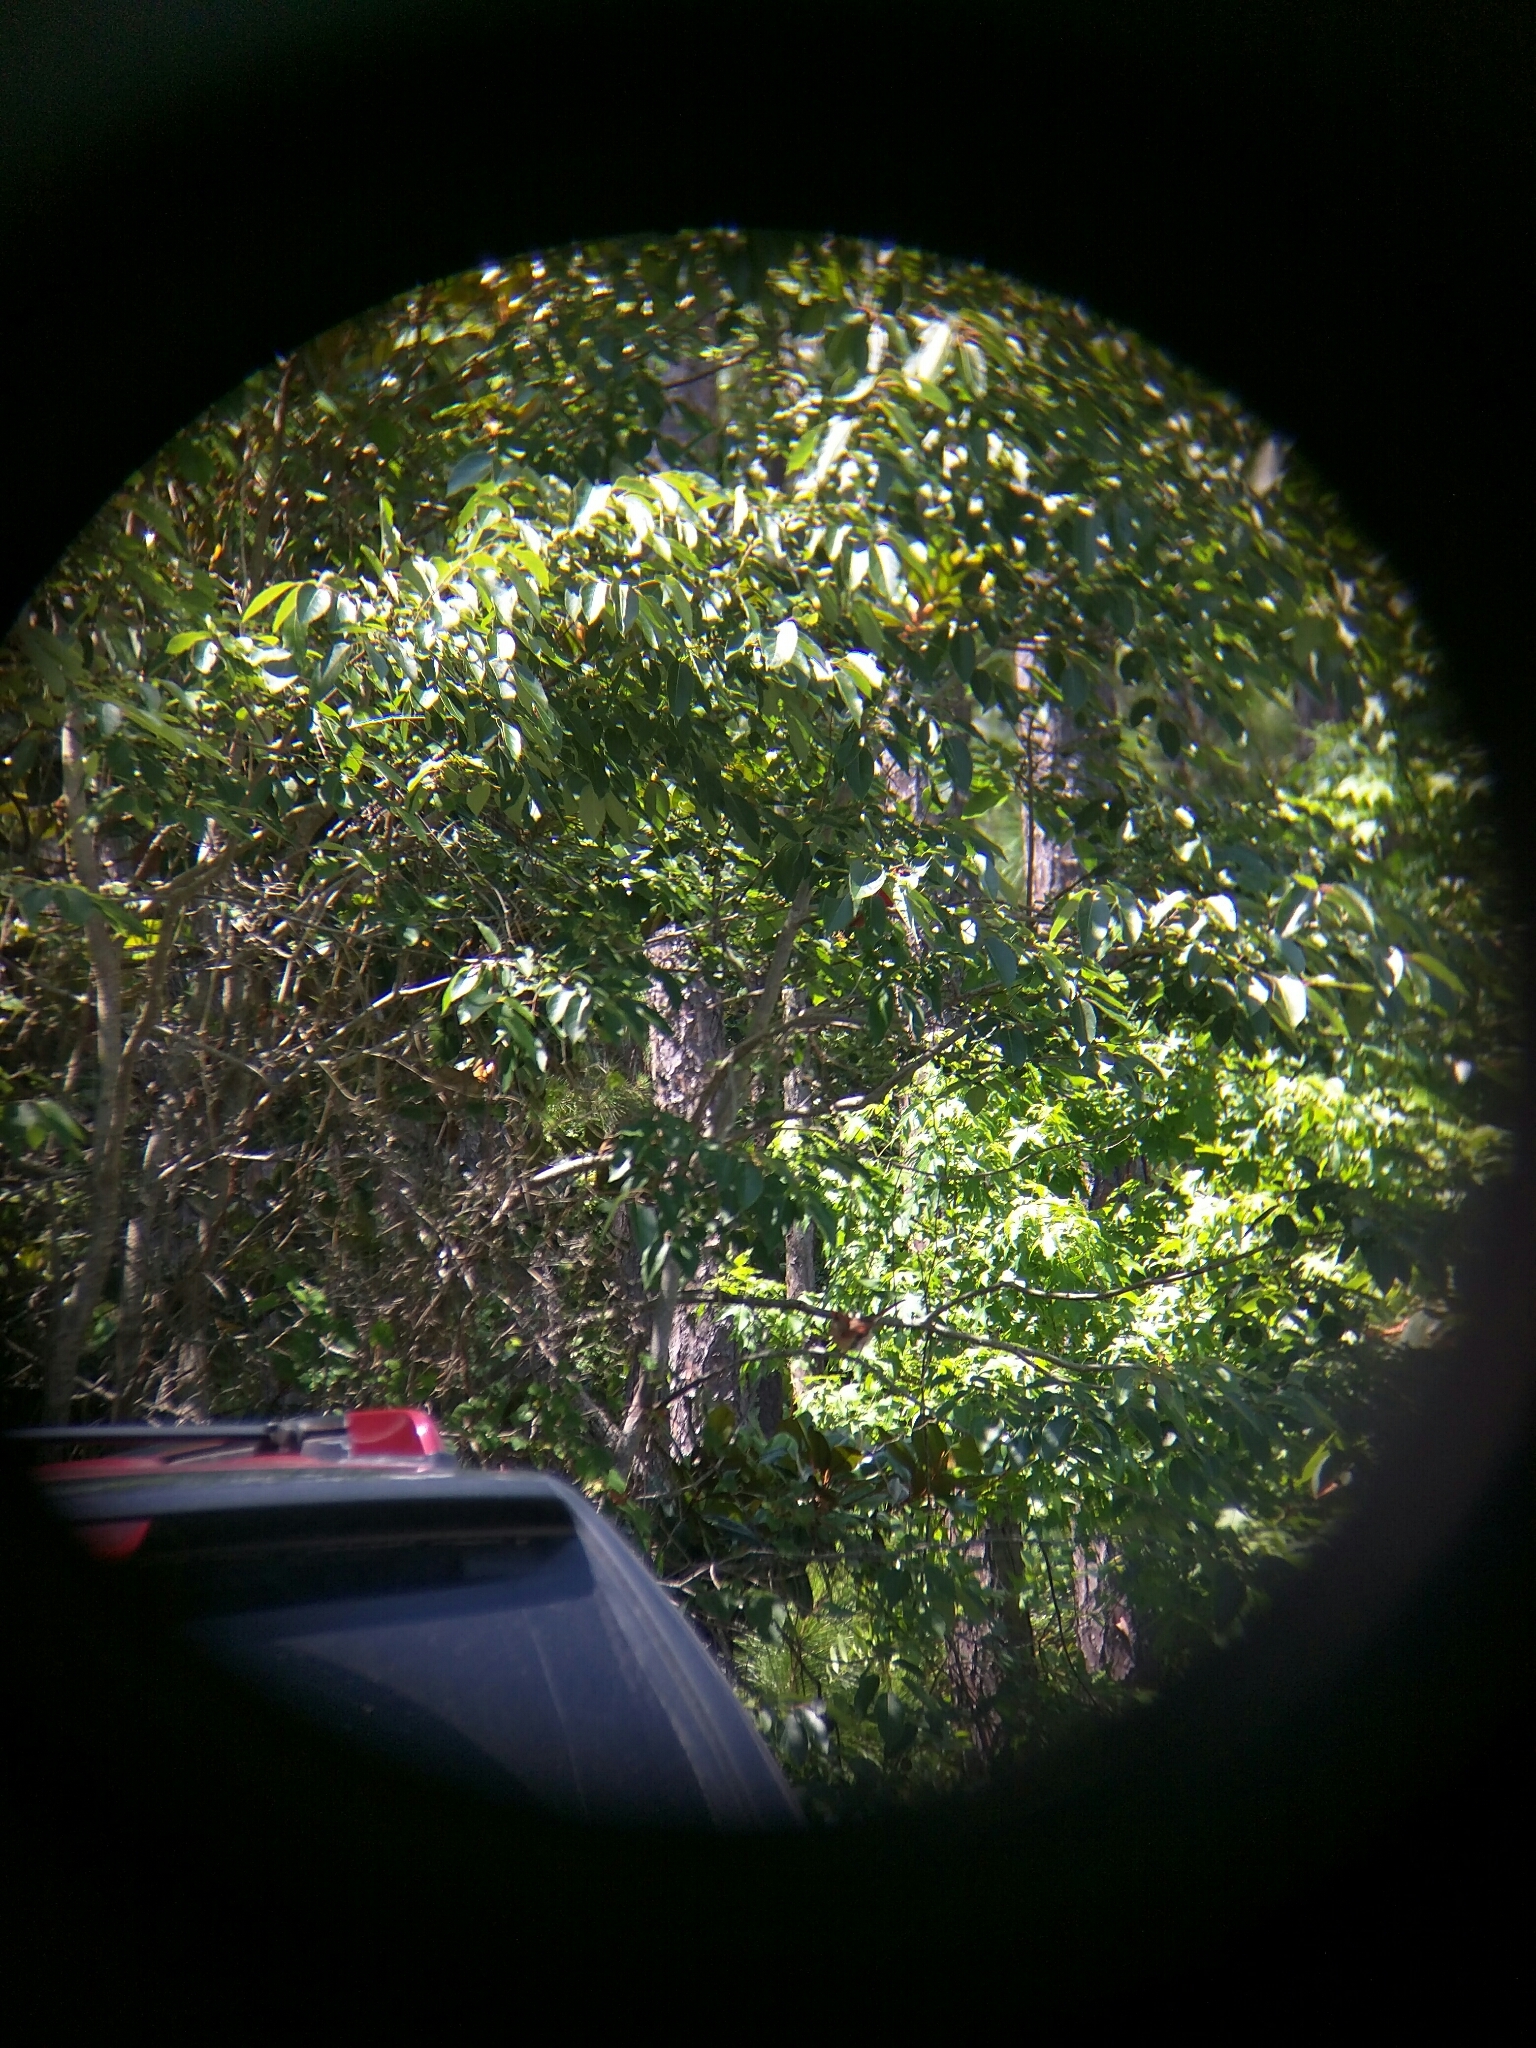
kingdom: Animalia
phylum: Chordata
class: Aves
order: Passeriformes
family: Cardinalidae
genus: Cardinalis
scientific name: Cardinalis cardinalis
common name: Northern cardinal
